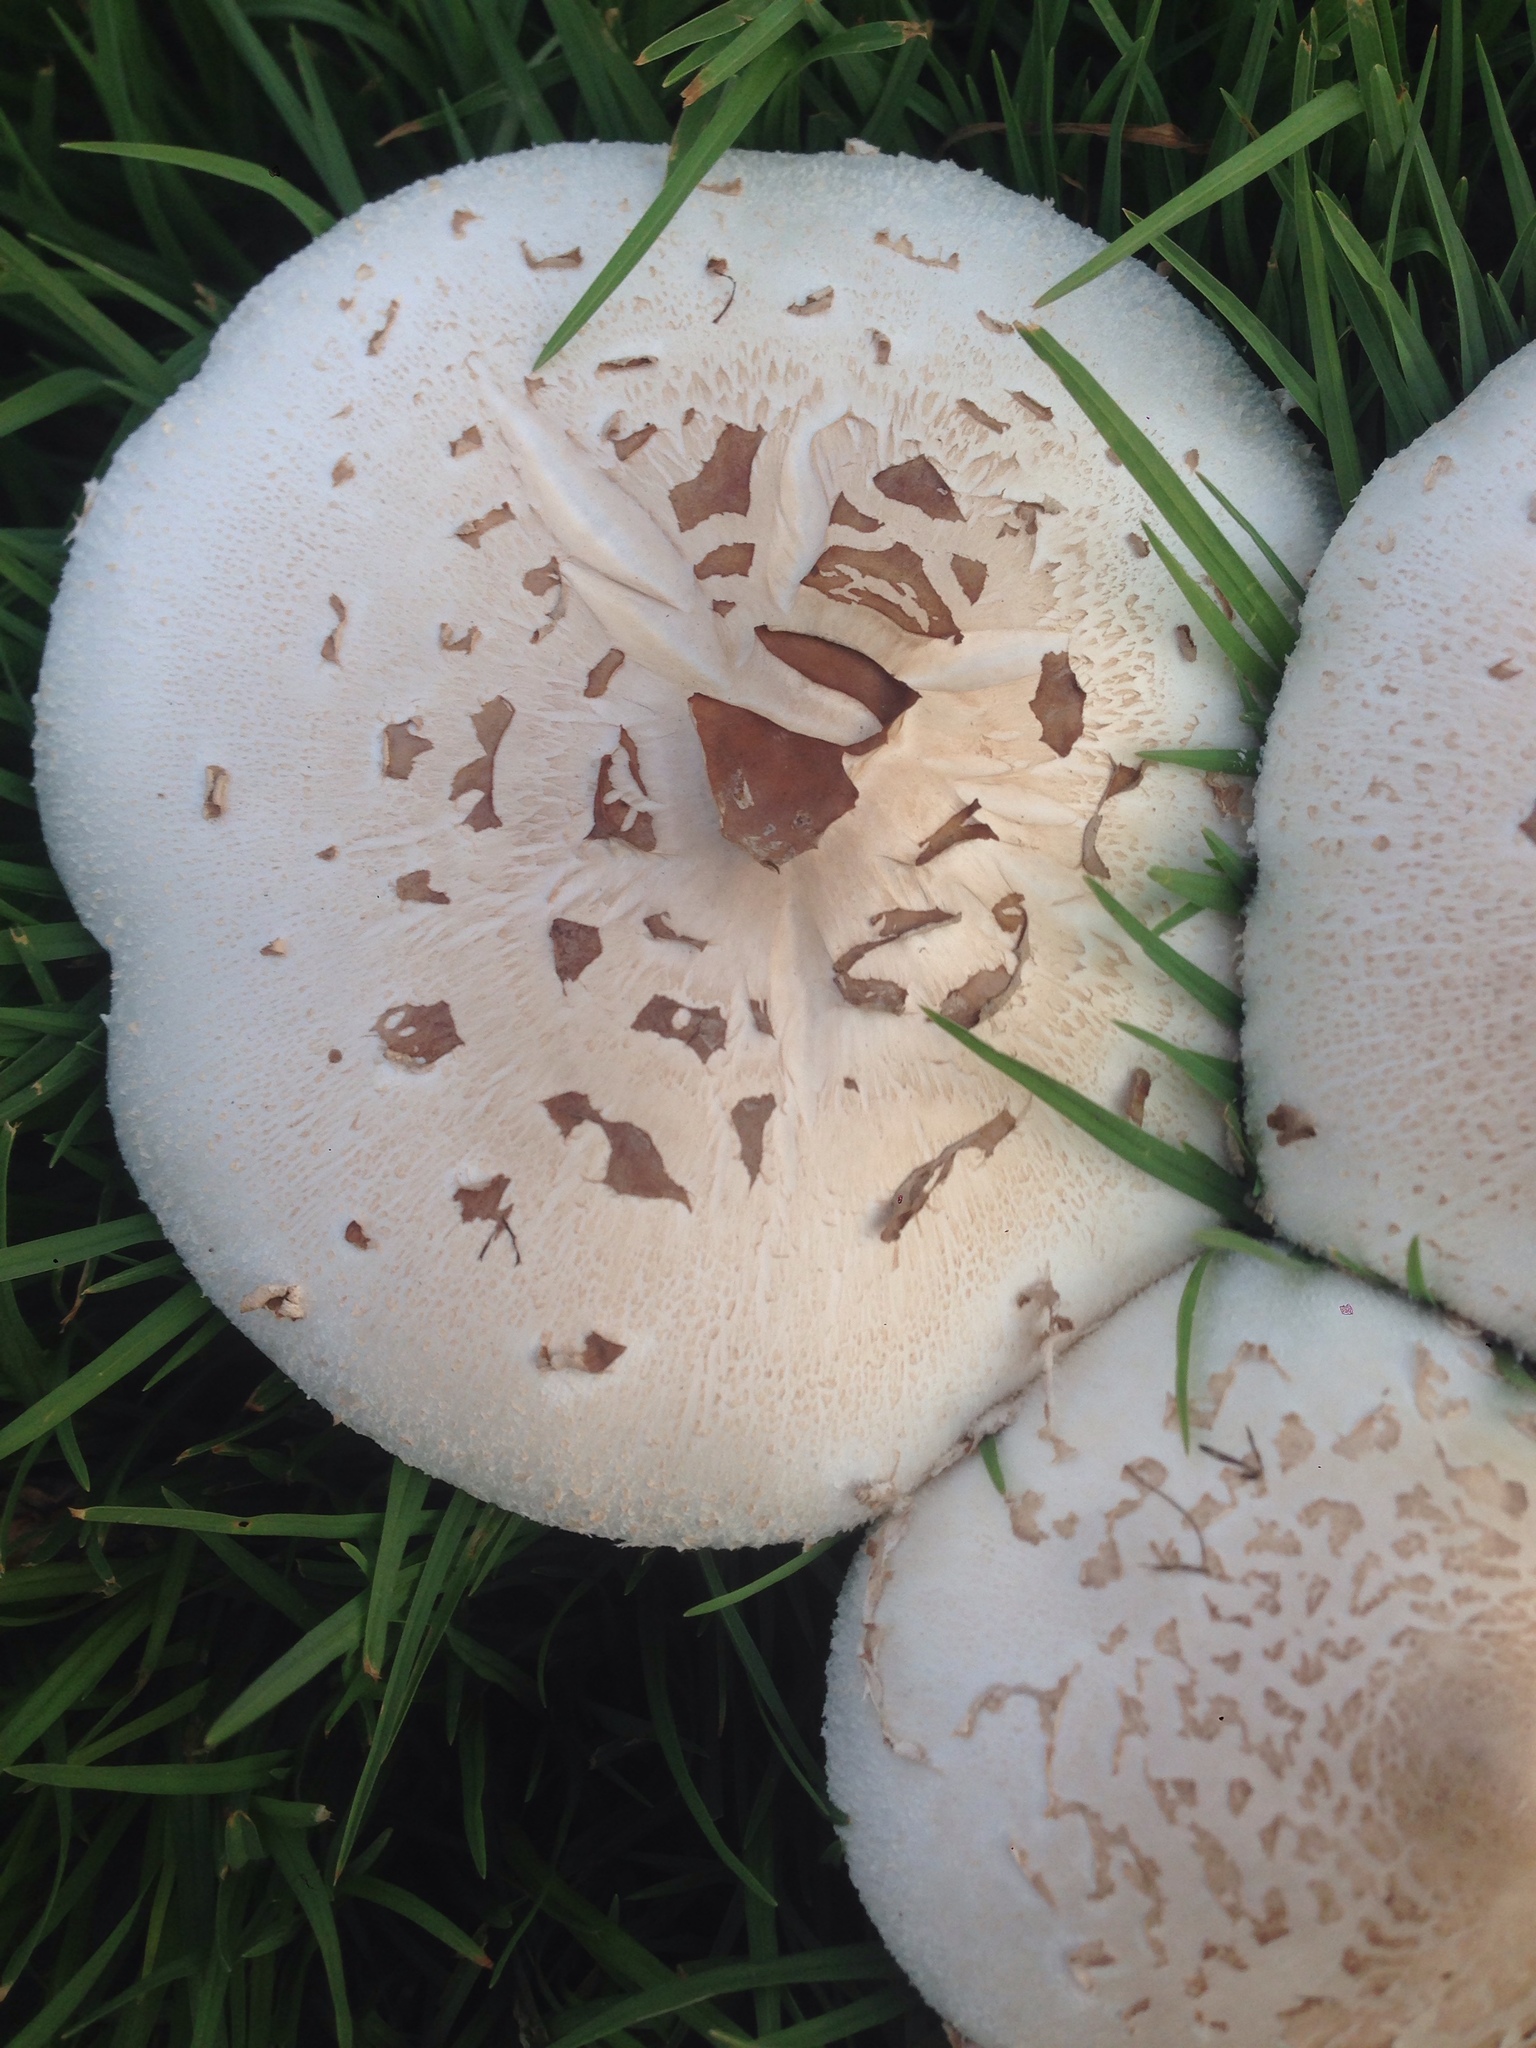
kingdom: Fungi
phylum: Basidiomycota
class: Agaricomycetes
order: Agaricales
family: Agaricaceae
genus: Chlorophyllum
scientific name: Chlorophyllum molybdites
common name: False parasol
